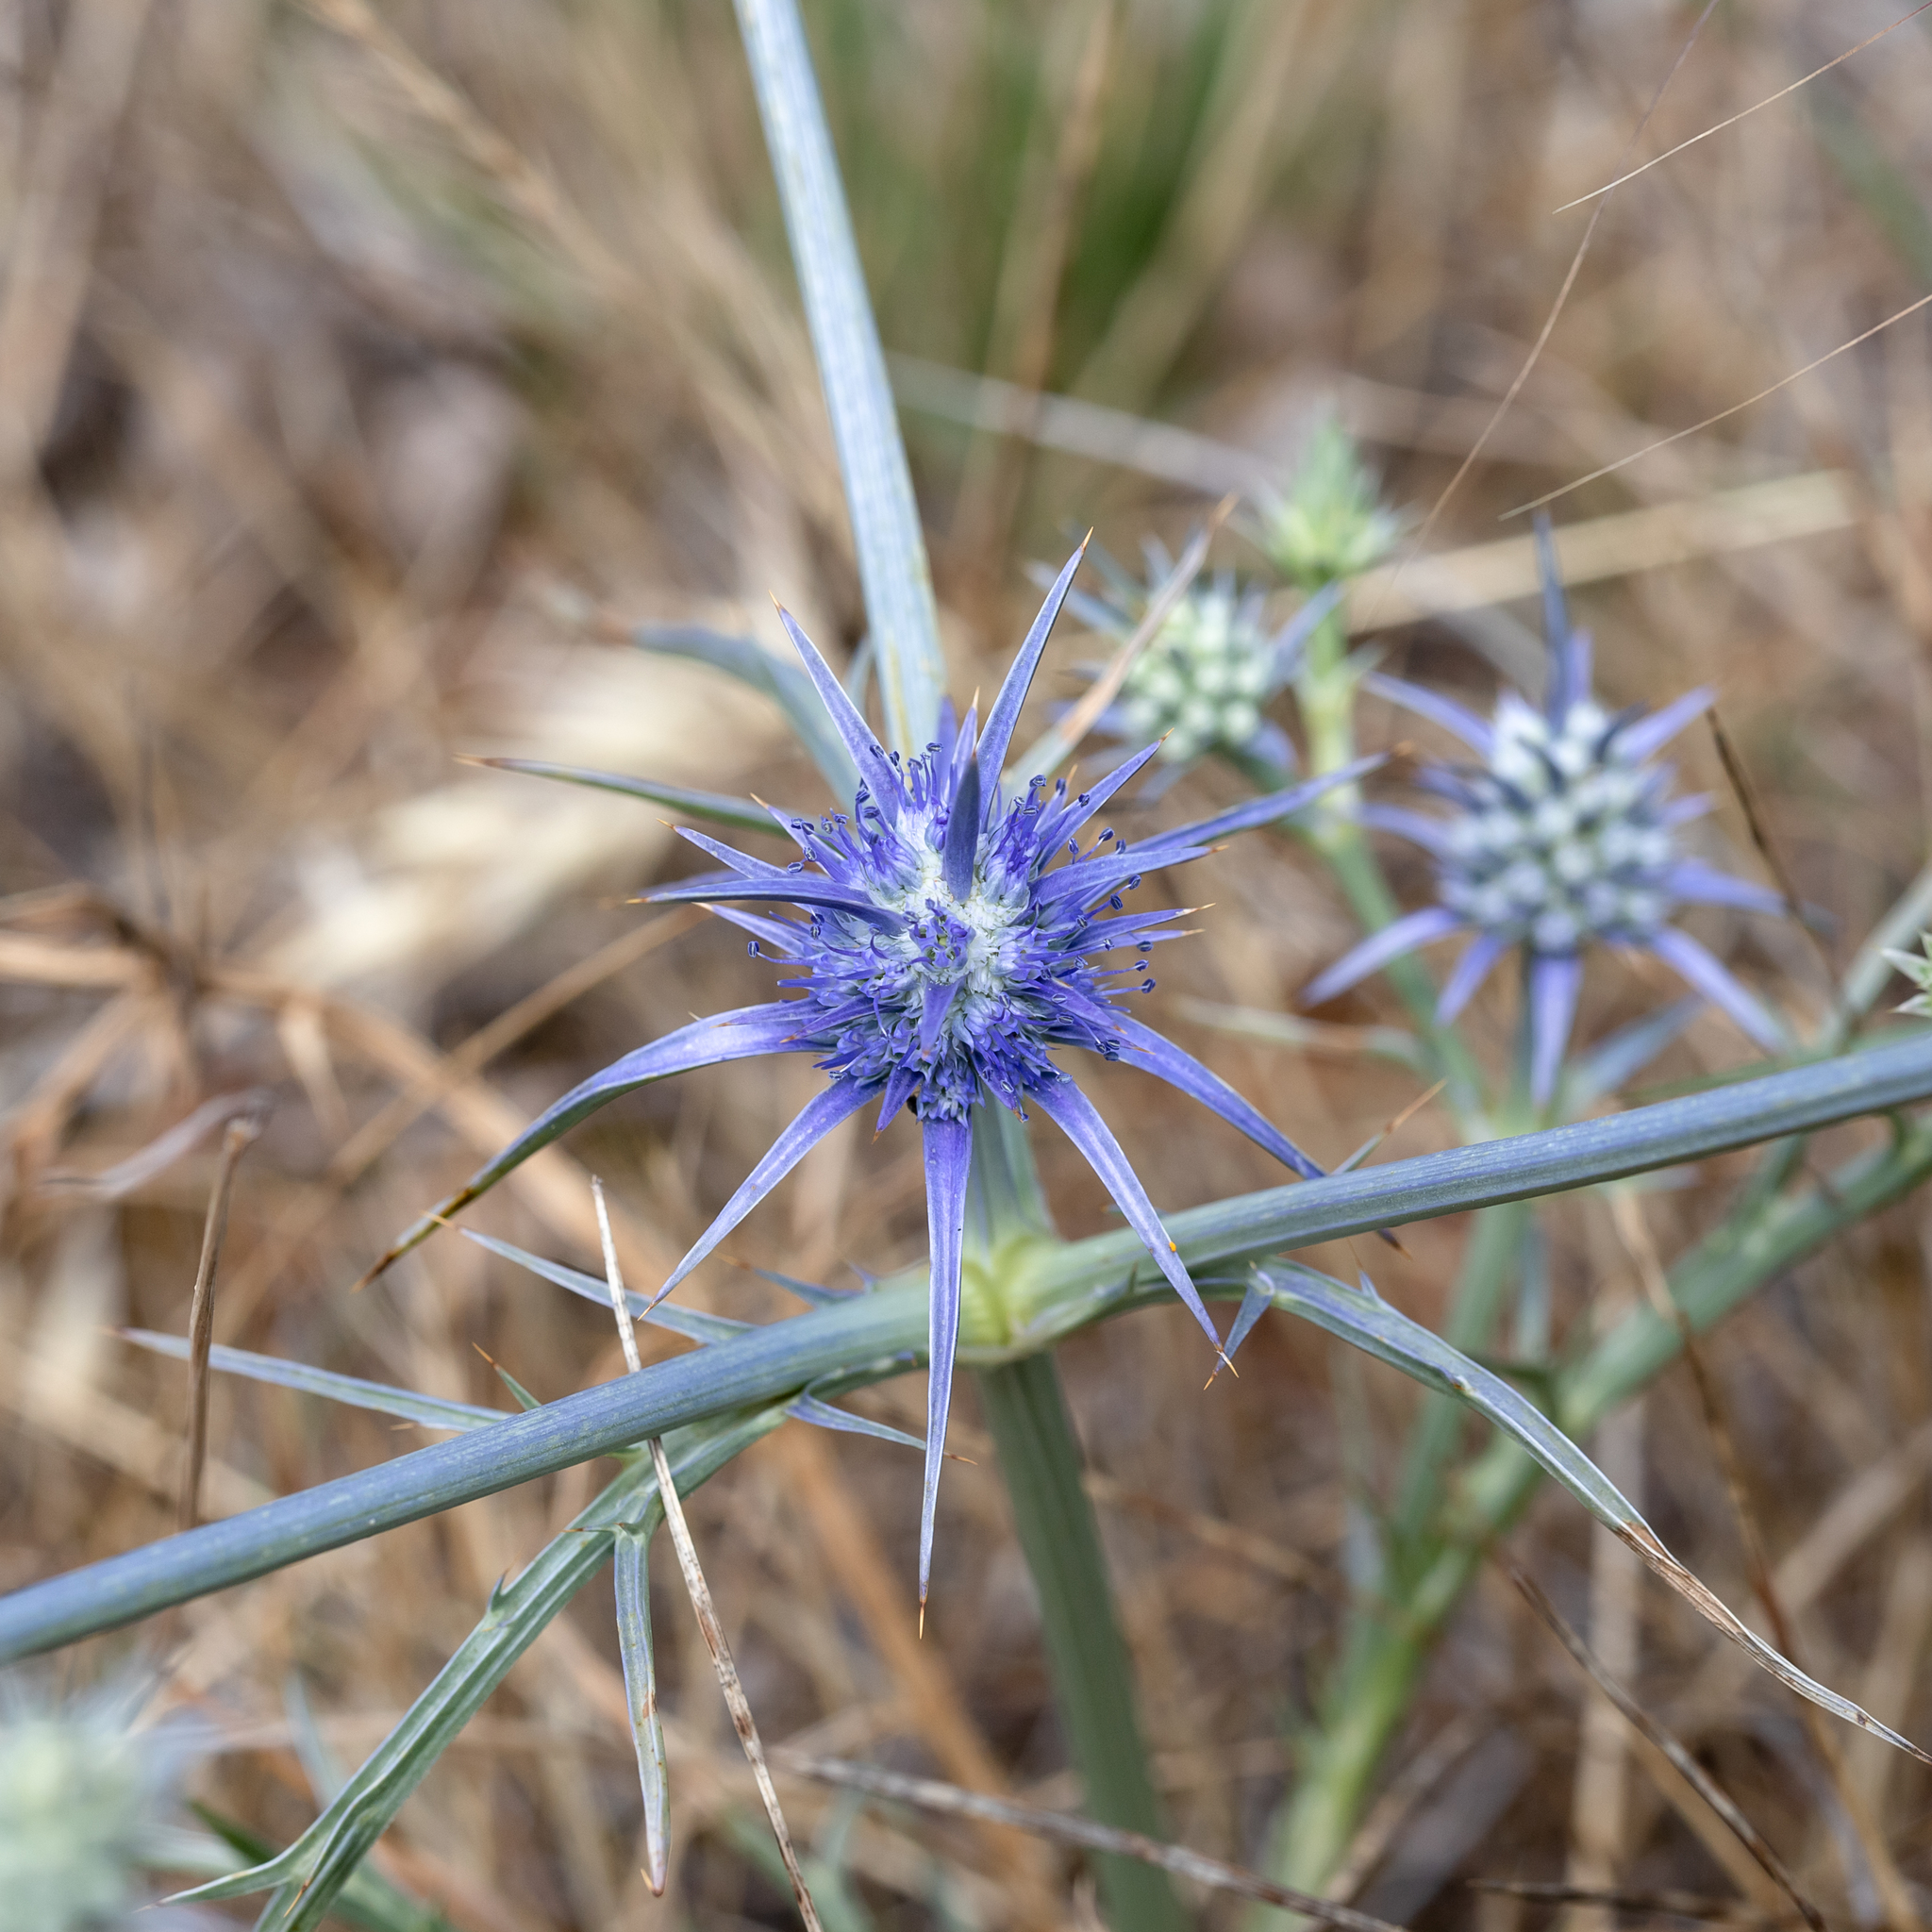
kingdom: Plantae
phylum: Tracheophyta
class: Magnoliopsida
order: Apiales
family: Apiaceae
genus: Eryngium
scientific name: Eryngium ovinum
